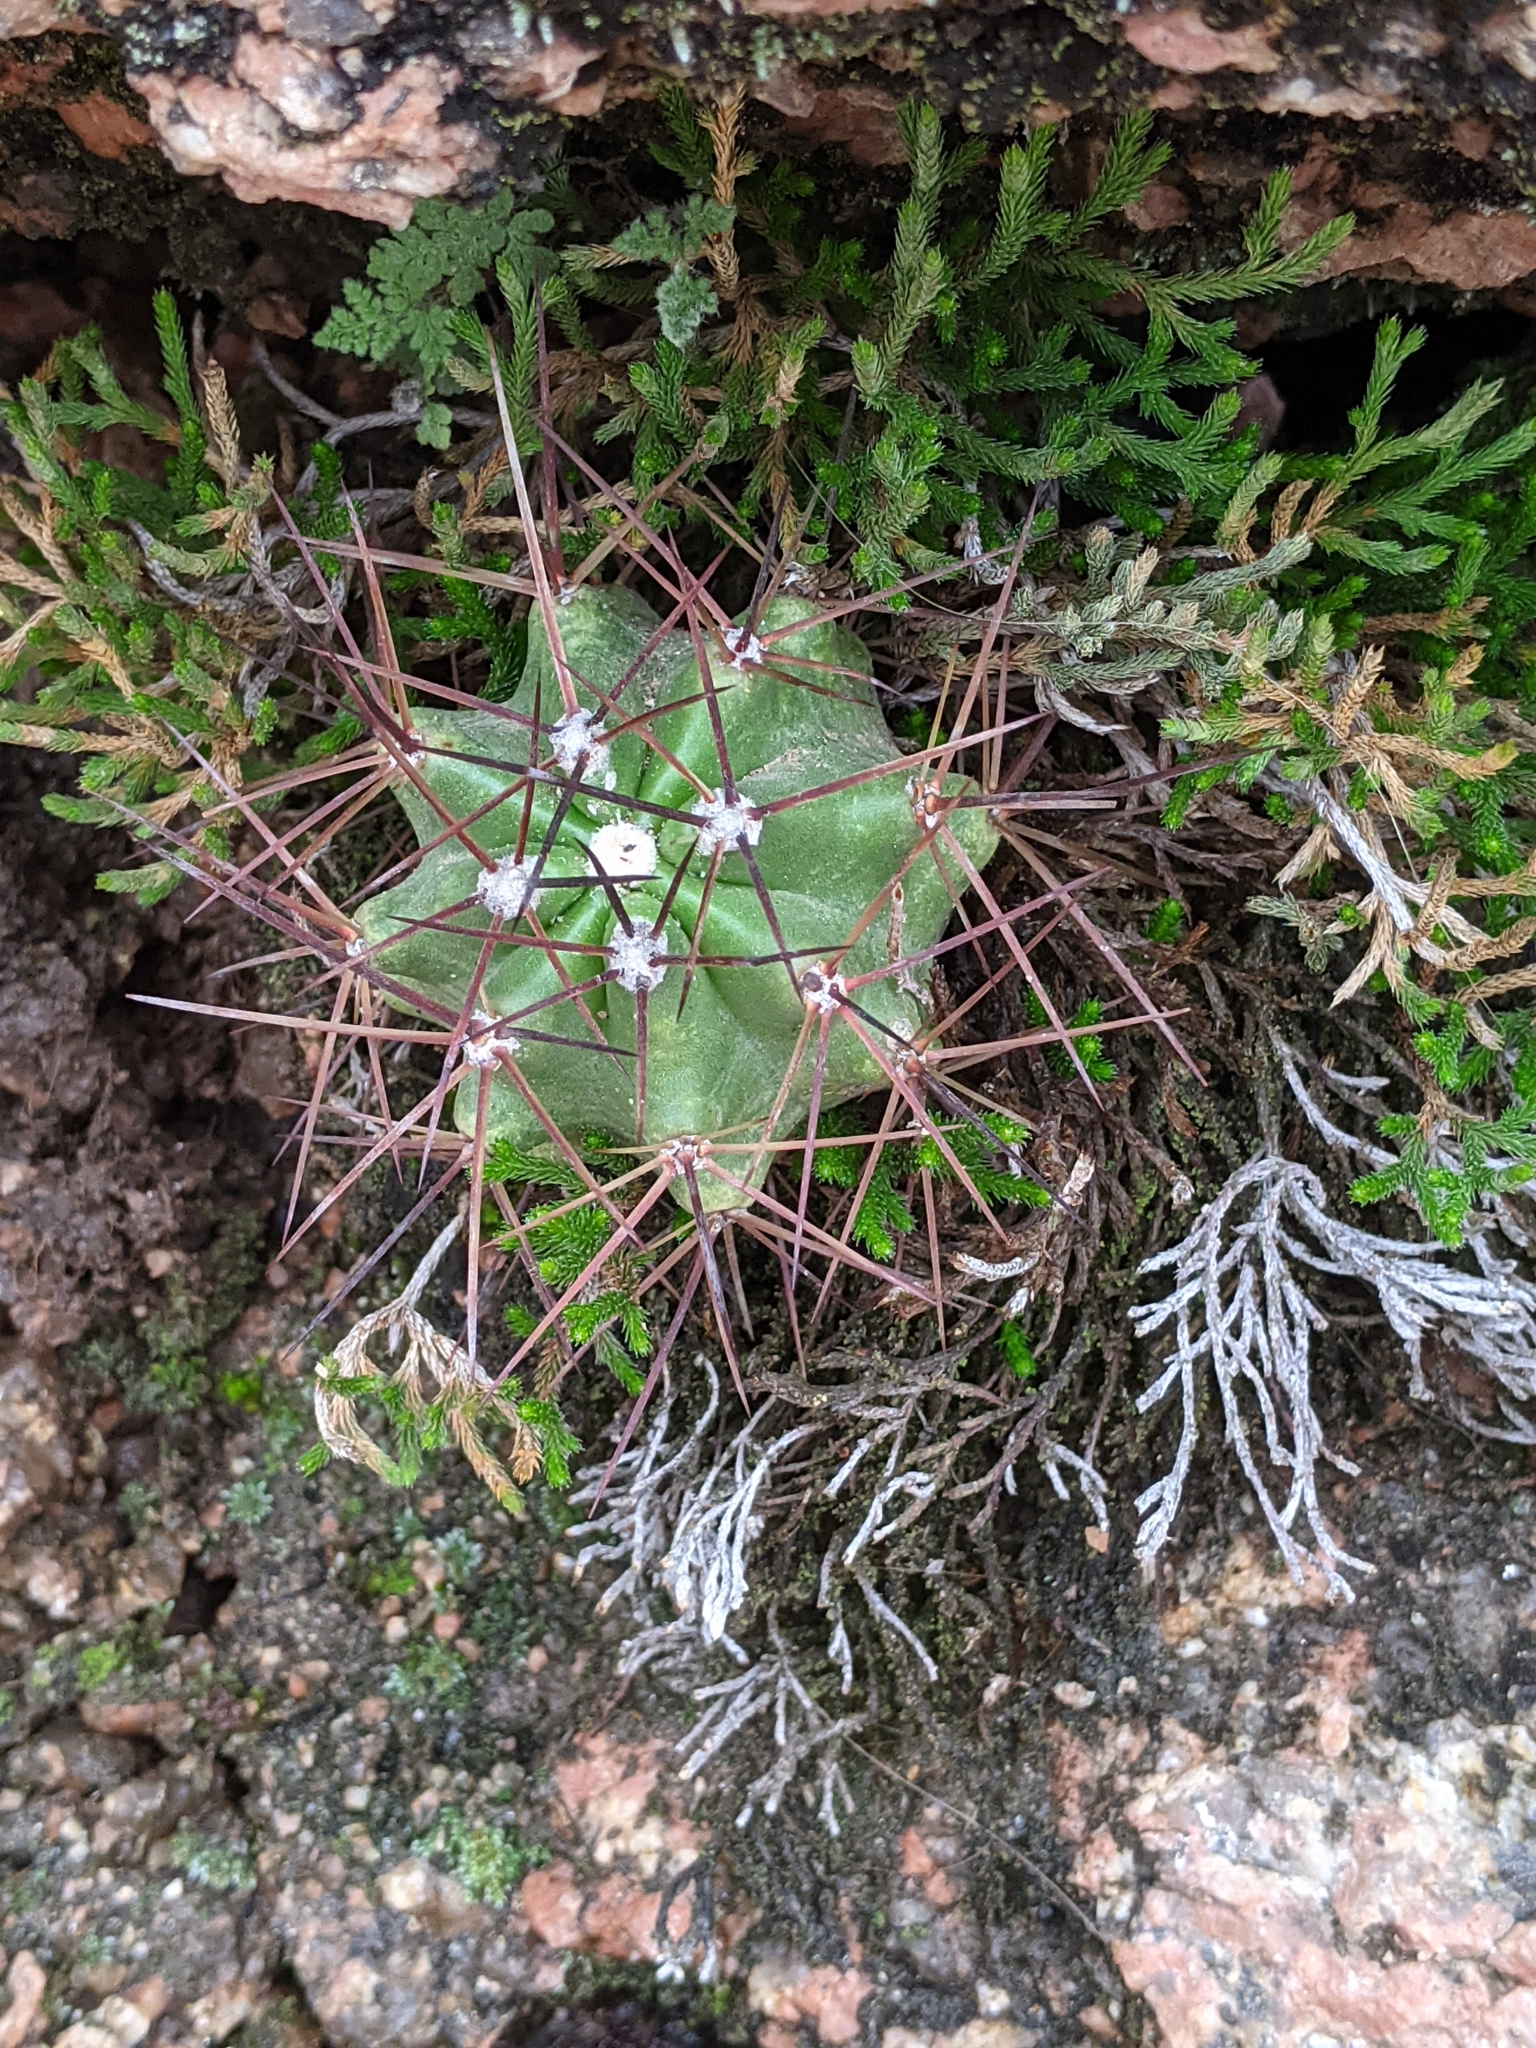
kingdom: Plantae
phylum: Tracheophyta
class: Magnoliopsida
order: Caryophyllales
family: Cactaceae
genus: Echinocereus
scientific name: Echinocereus coccineus
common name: Scarlet hedgehog cactus
